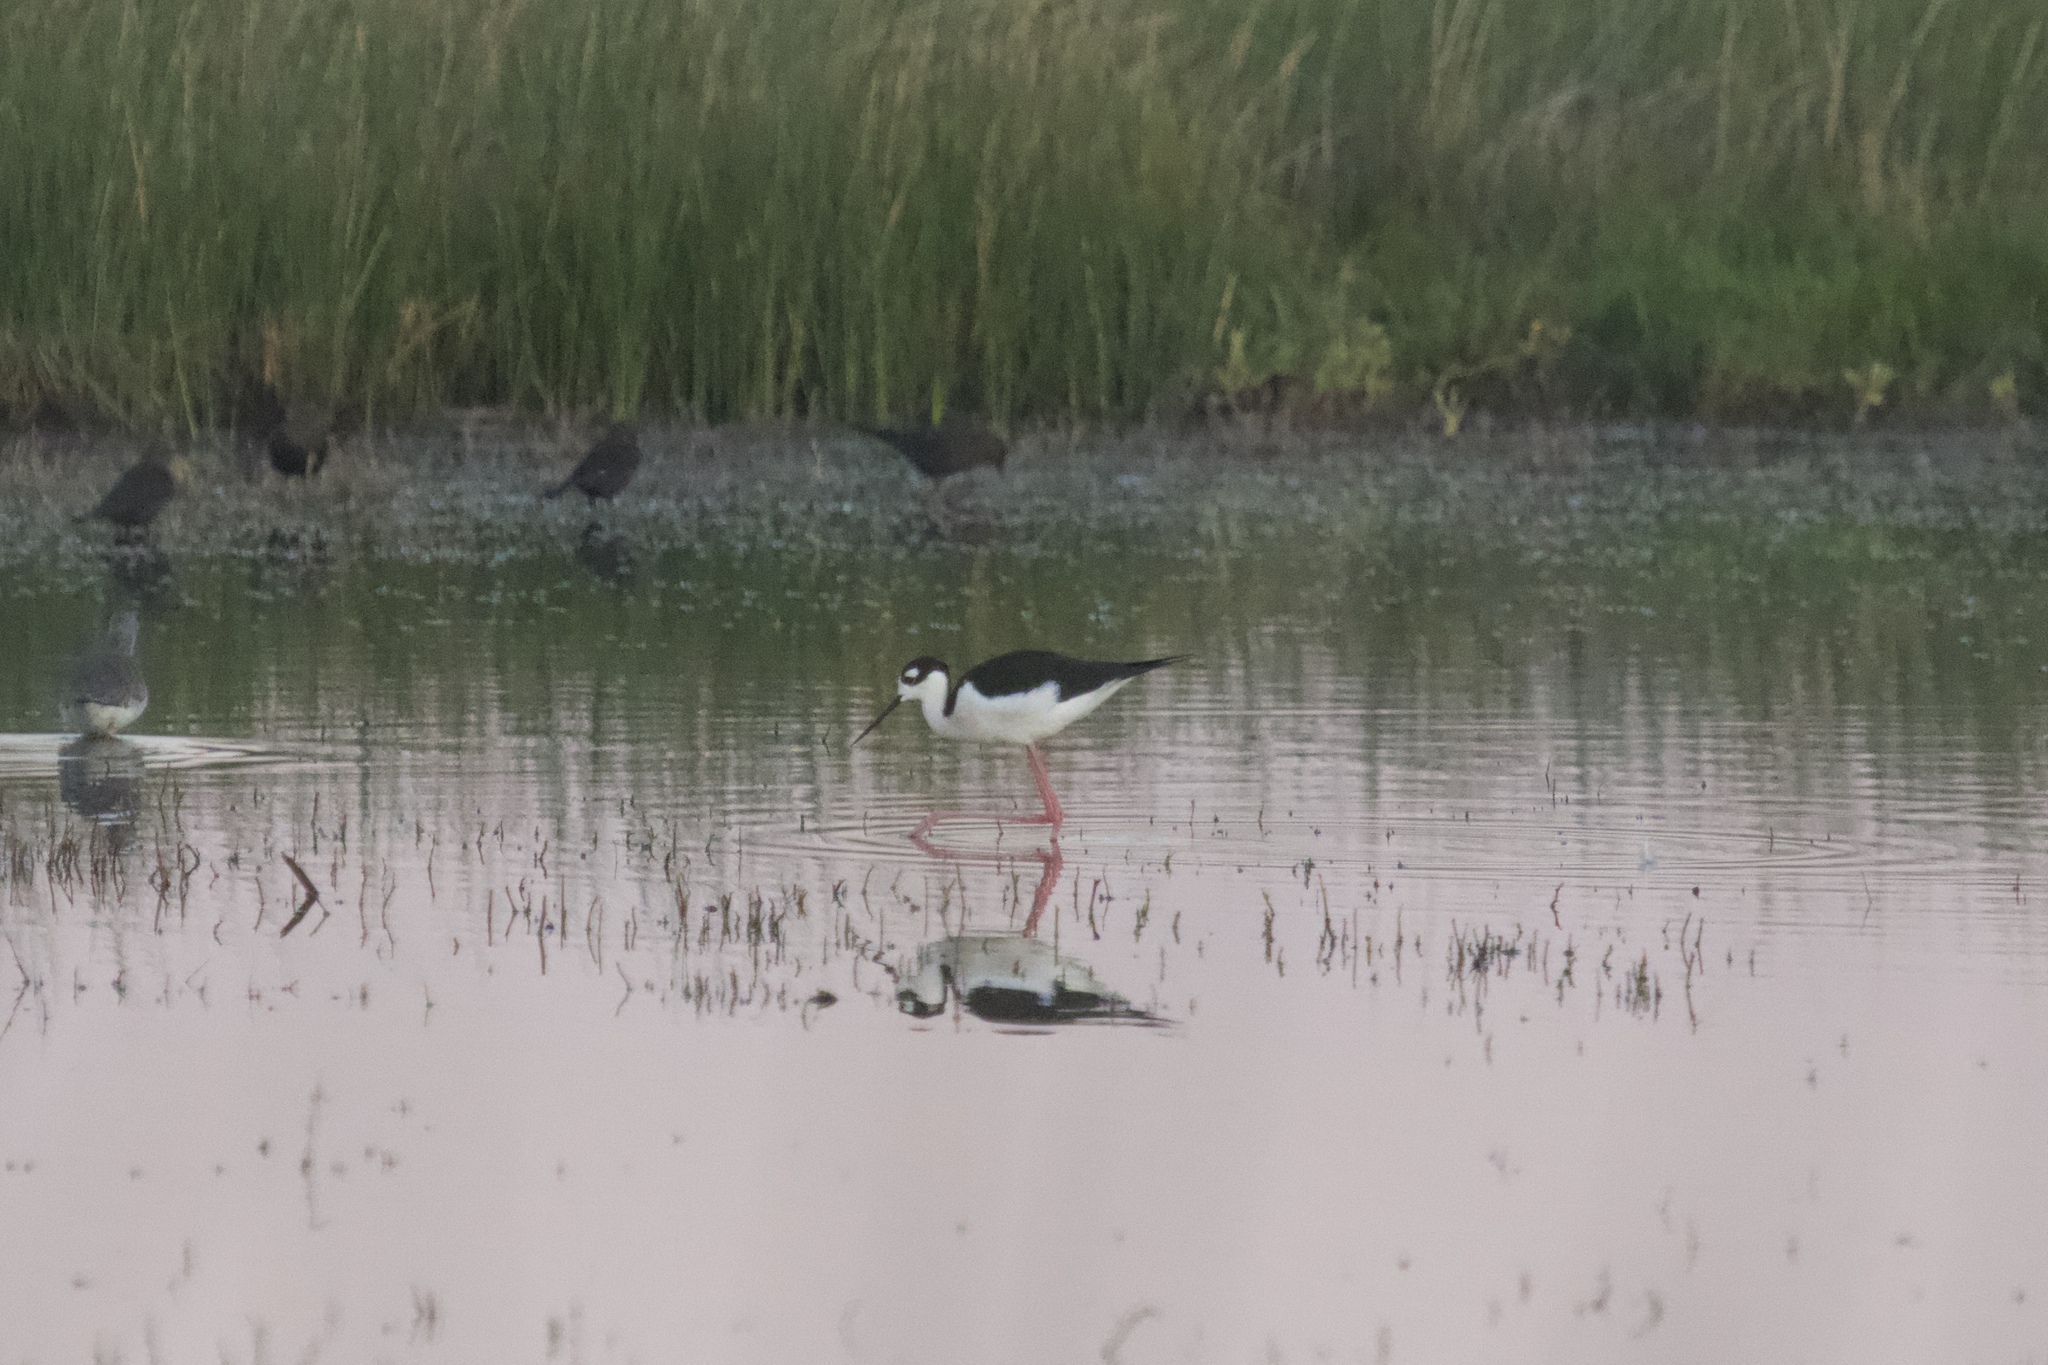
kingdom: Animalia
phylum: Chordata
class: Aves
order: Charadriiformes
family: Recurvirostridae
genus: Himantopus
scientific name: Himantopus mexicanus
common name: Black-necked stilt
